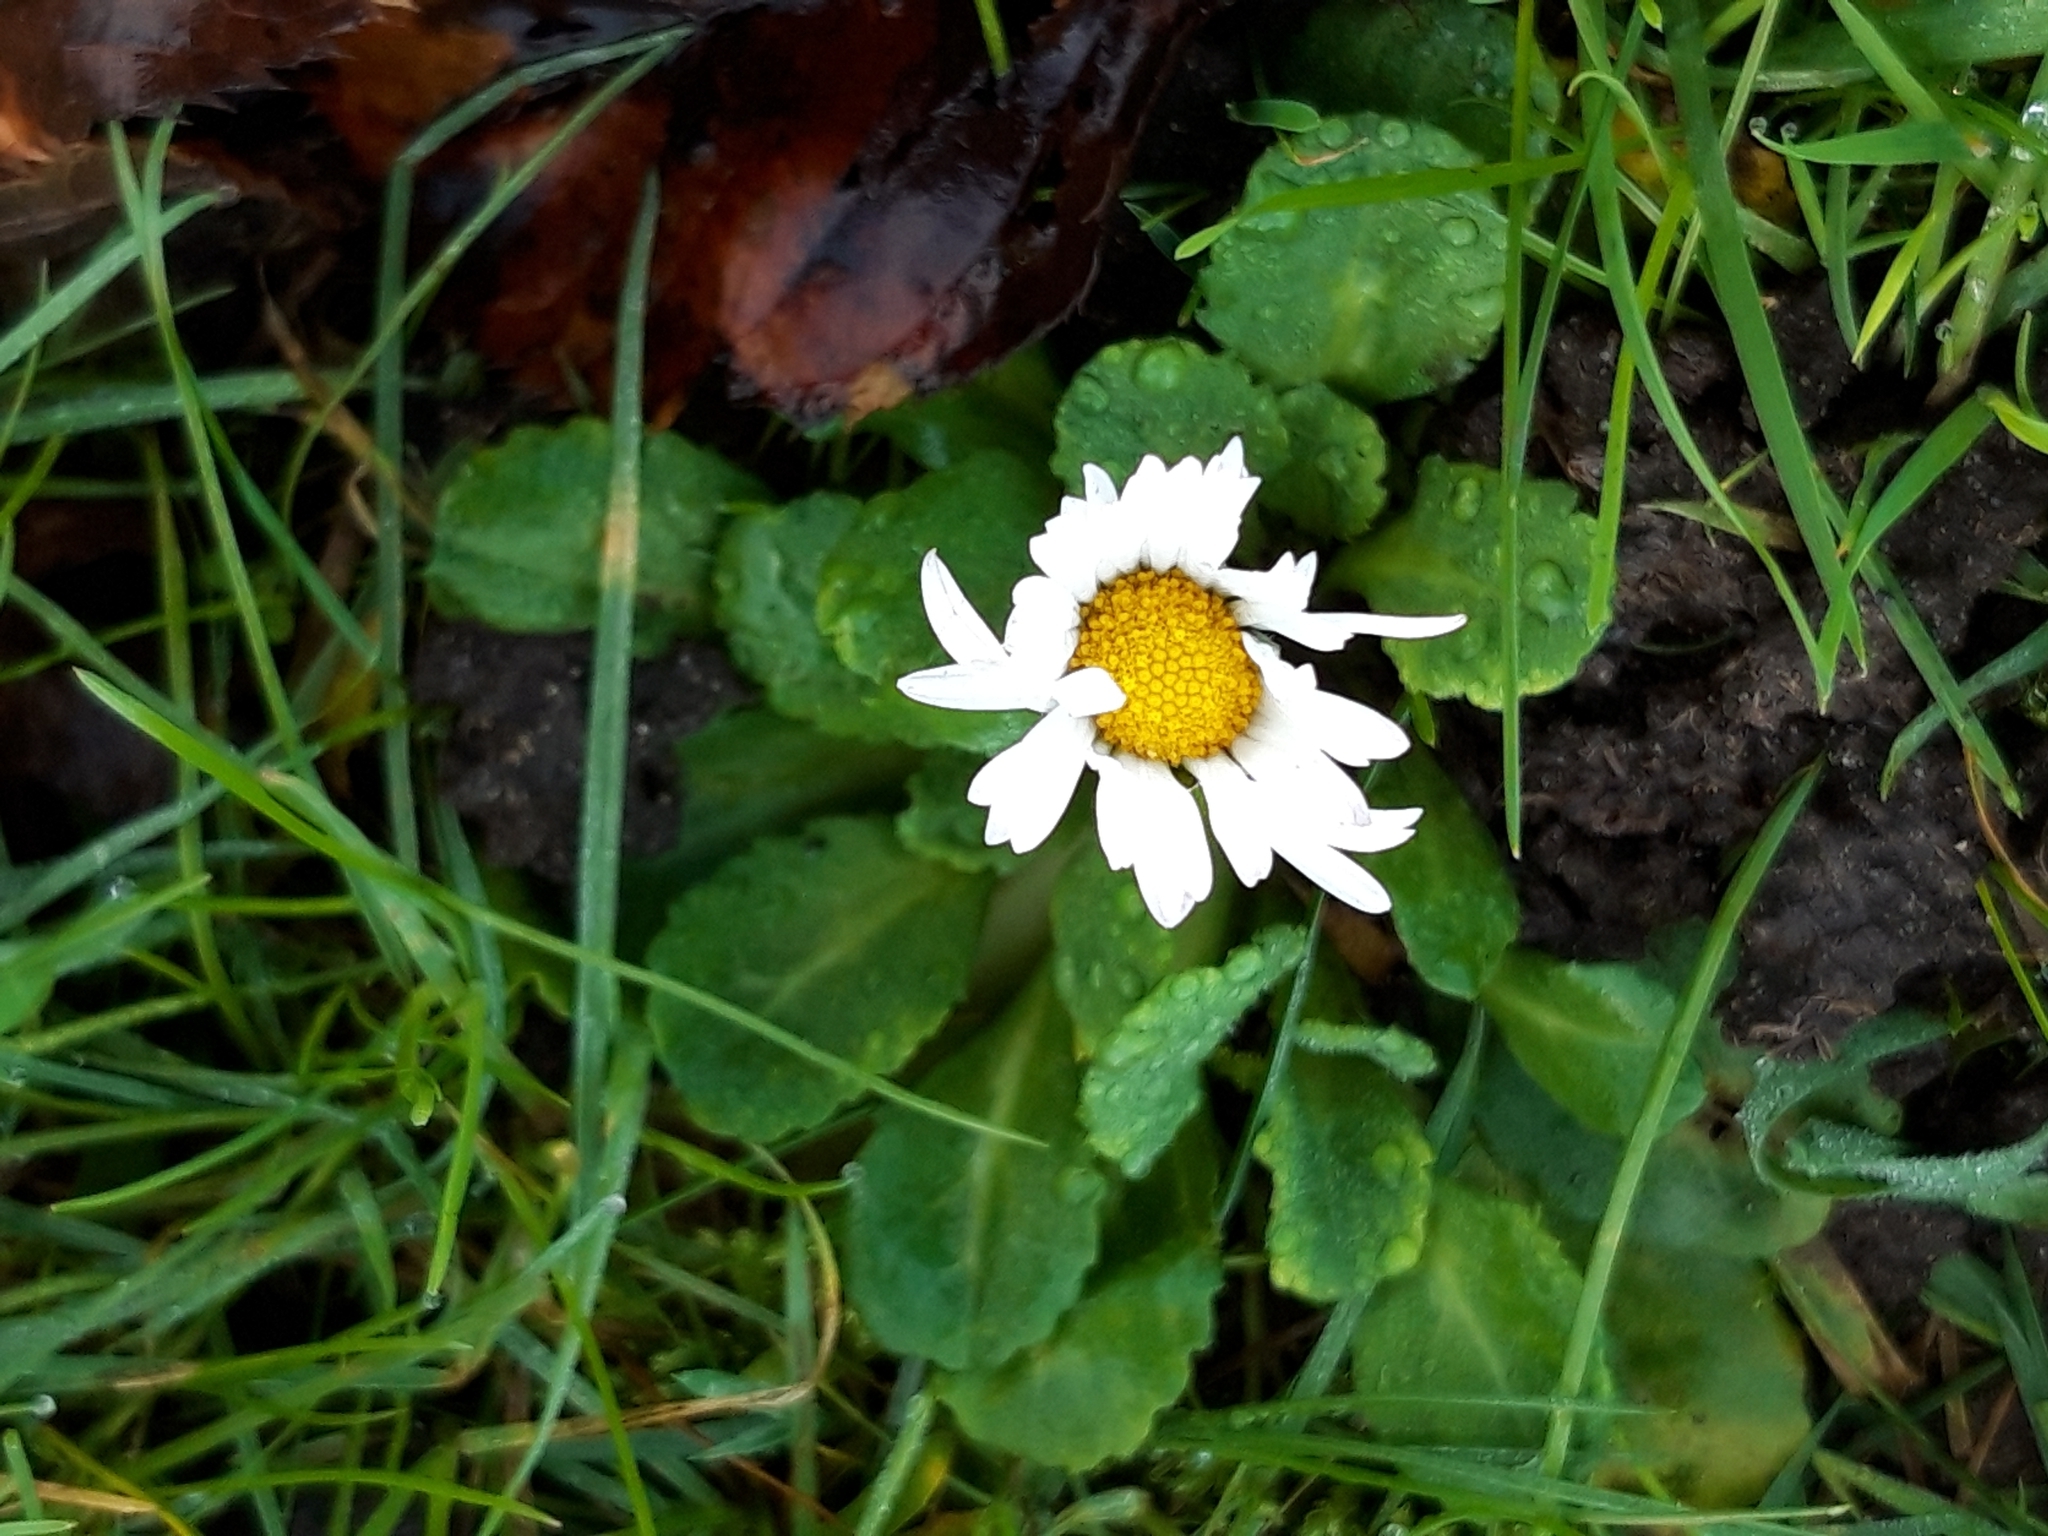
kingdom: Plantae
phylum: Tracheophyta
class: Magnoliopsida
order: Asterales
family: Asteraceae
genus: Bellis
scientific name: Bellis perennis
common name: Lawndaisy
